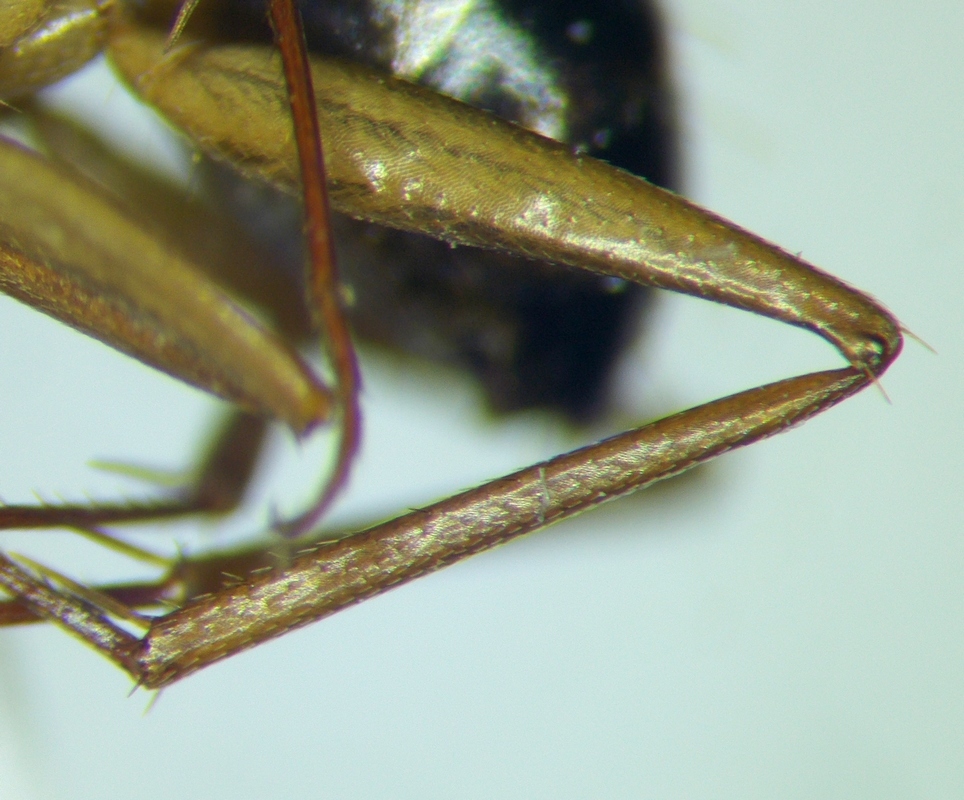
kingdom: Animalia
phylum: Arthropoda
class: Insecta
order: Hymenoptera
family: Formicidae
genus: Camponotus
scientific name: Camponotus baldaccii
